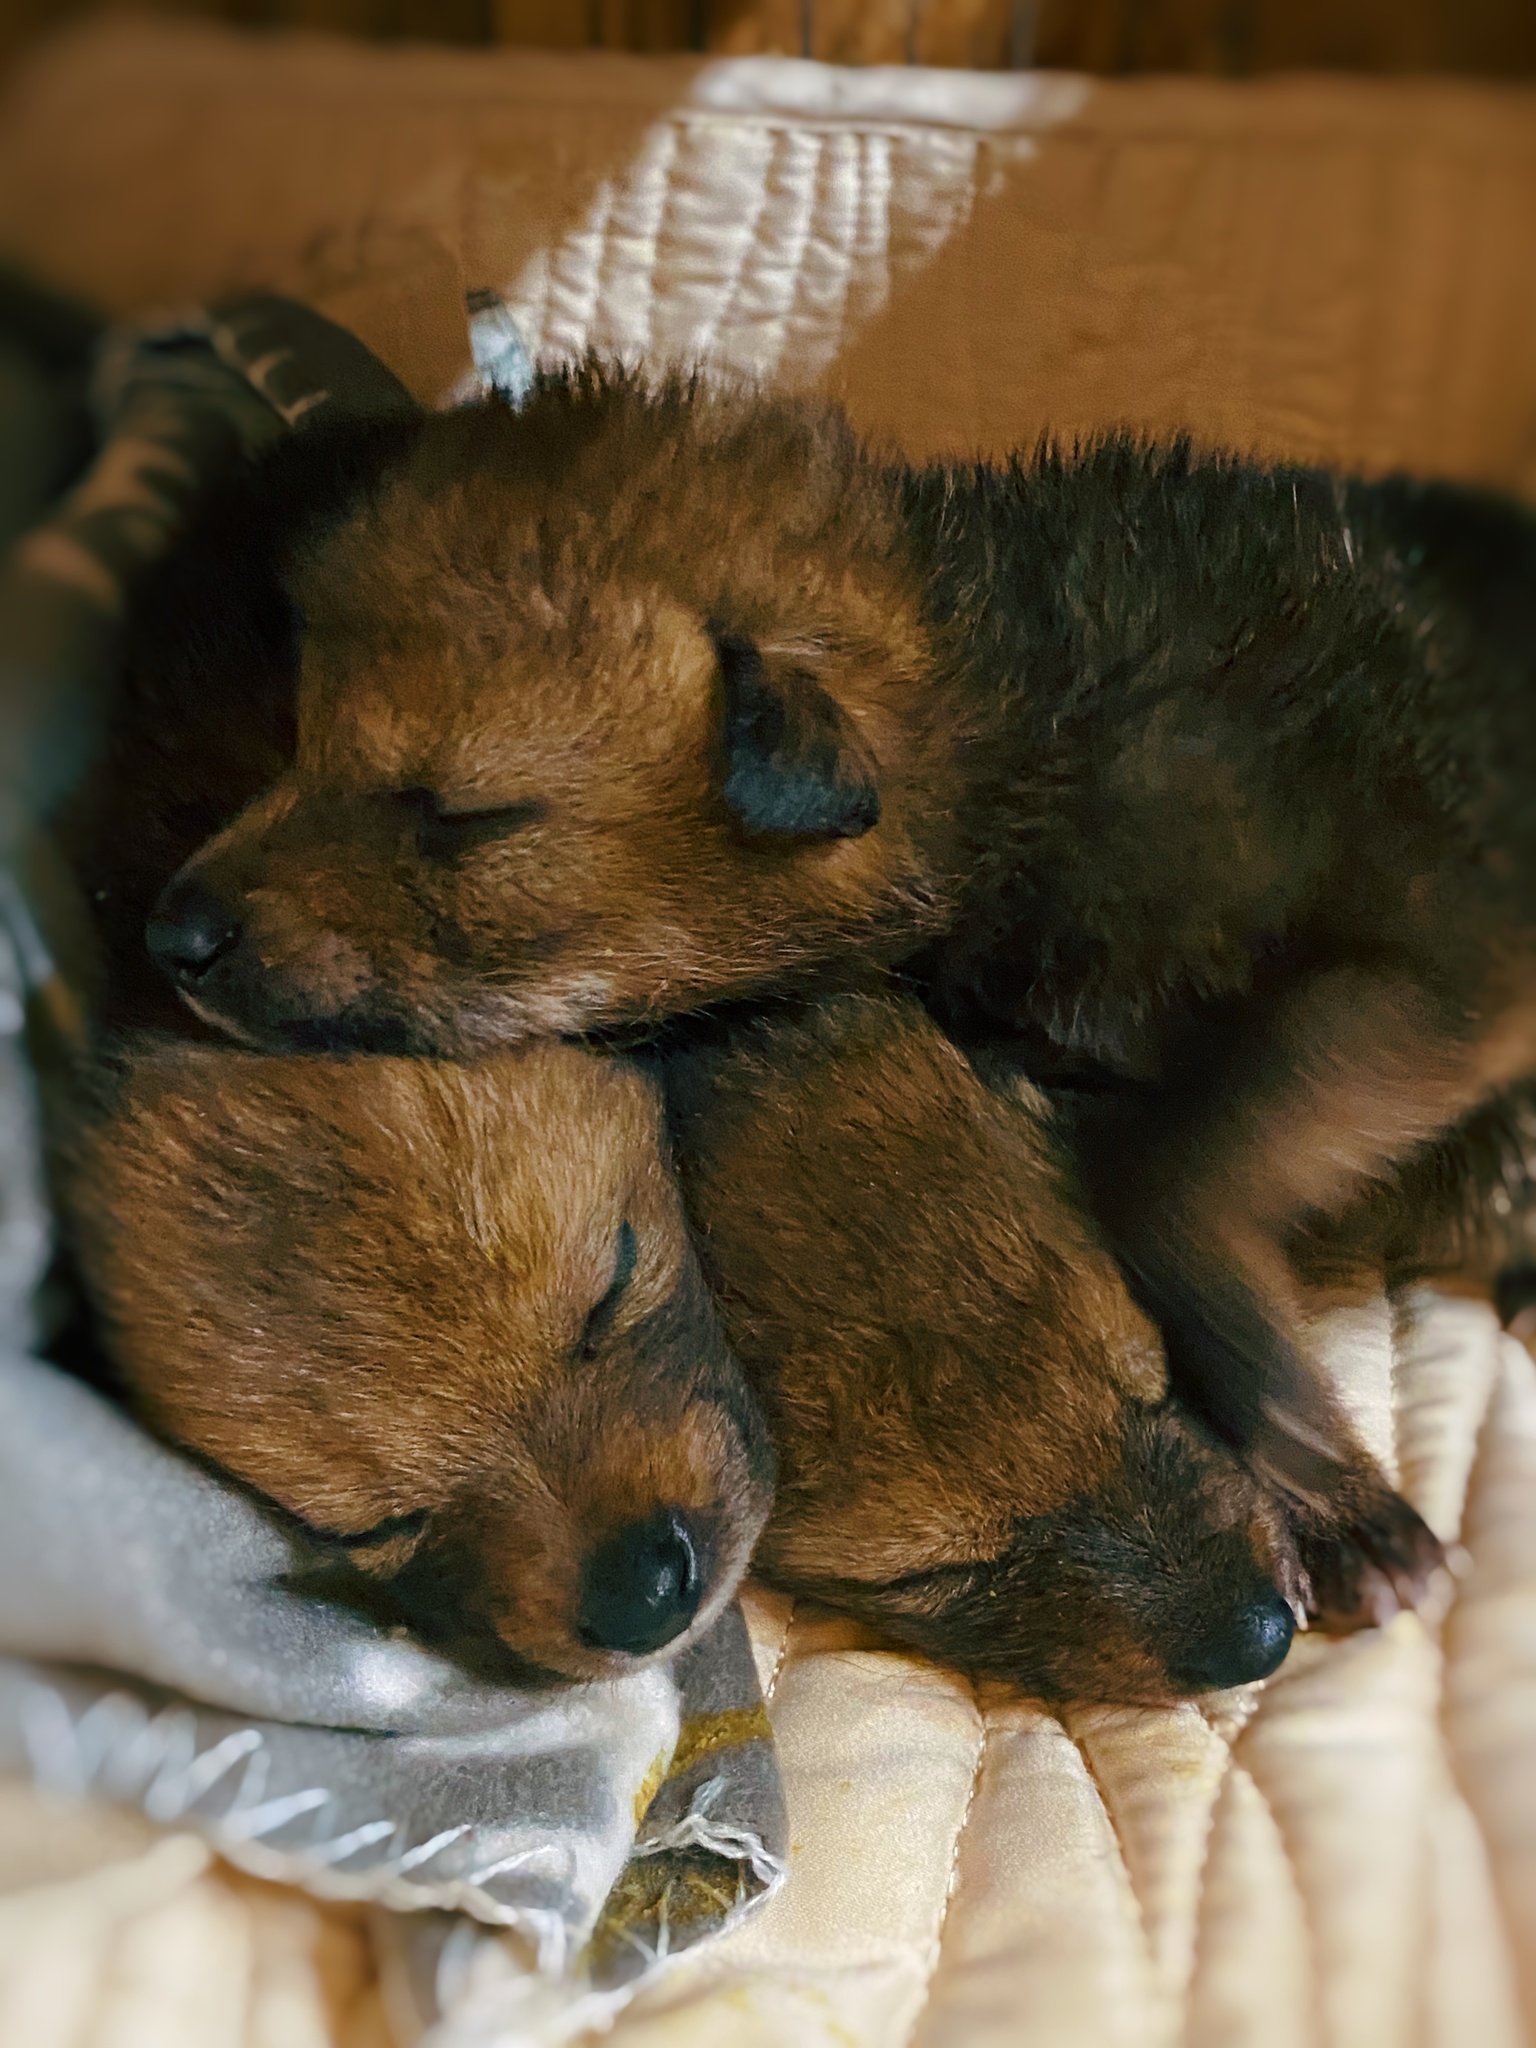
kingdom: Animalia
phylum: Chordata
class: Mammalia
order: Carnivora
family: Canidae
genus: Canis
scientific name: Canis latrans
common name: Coyote
